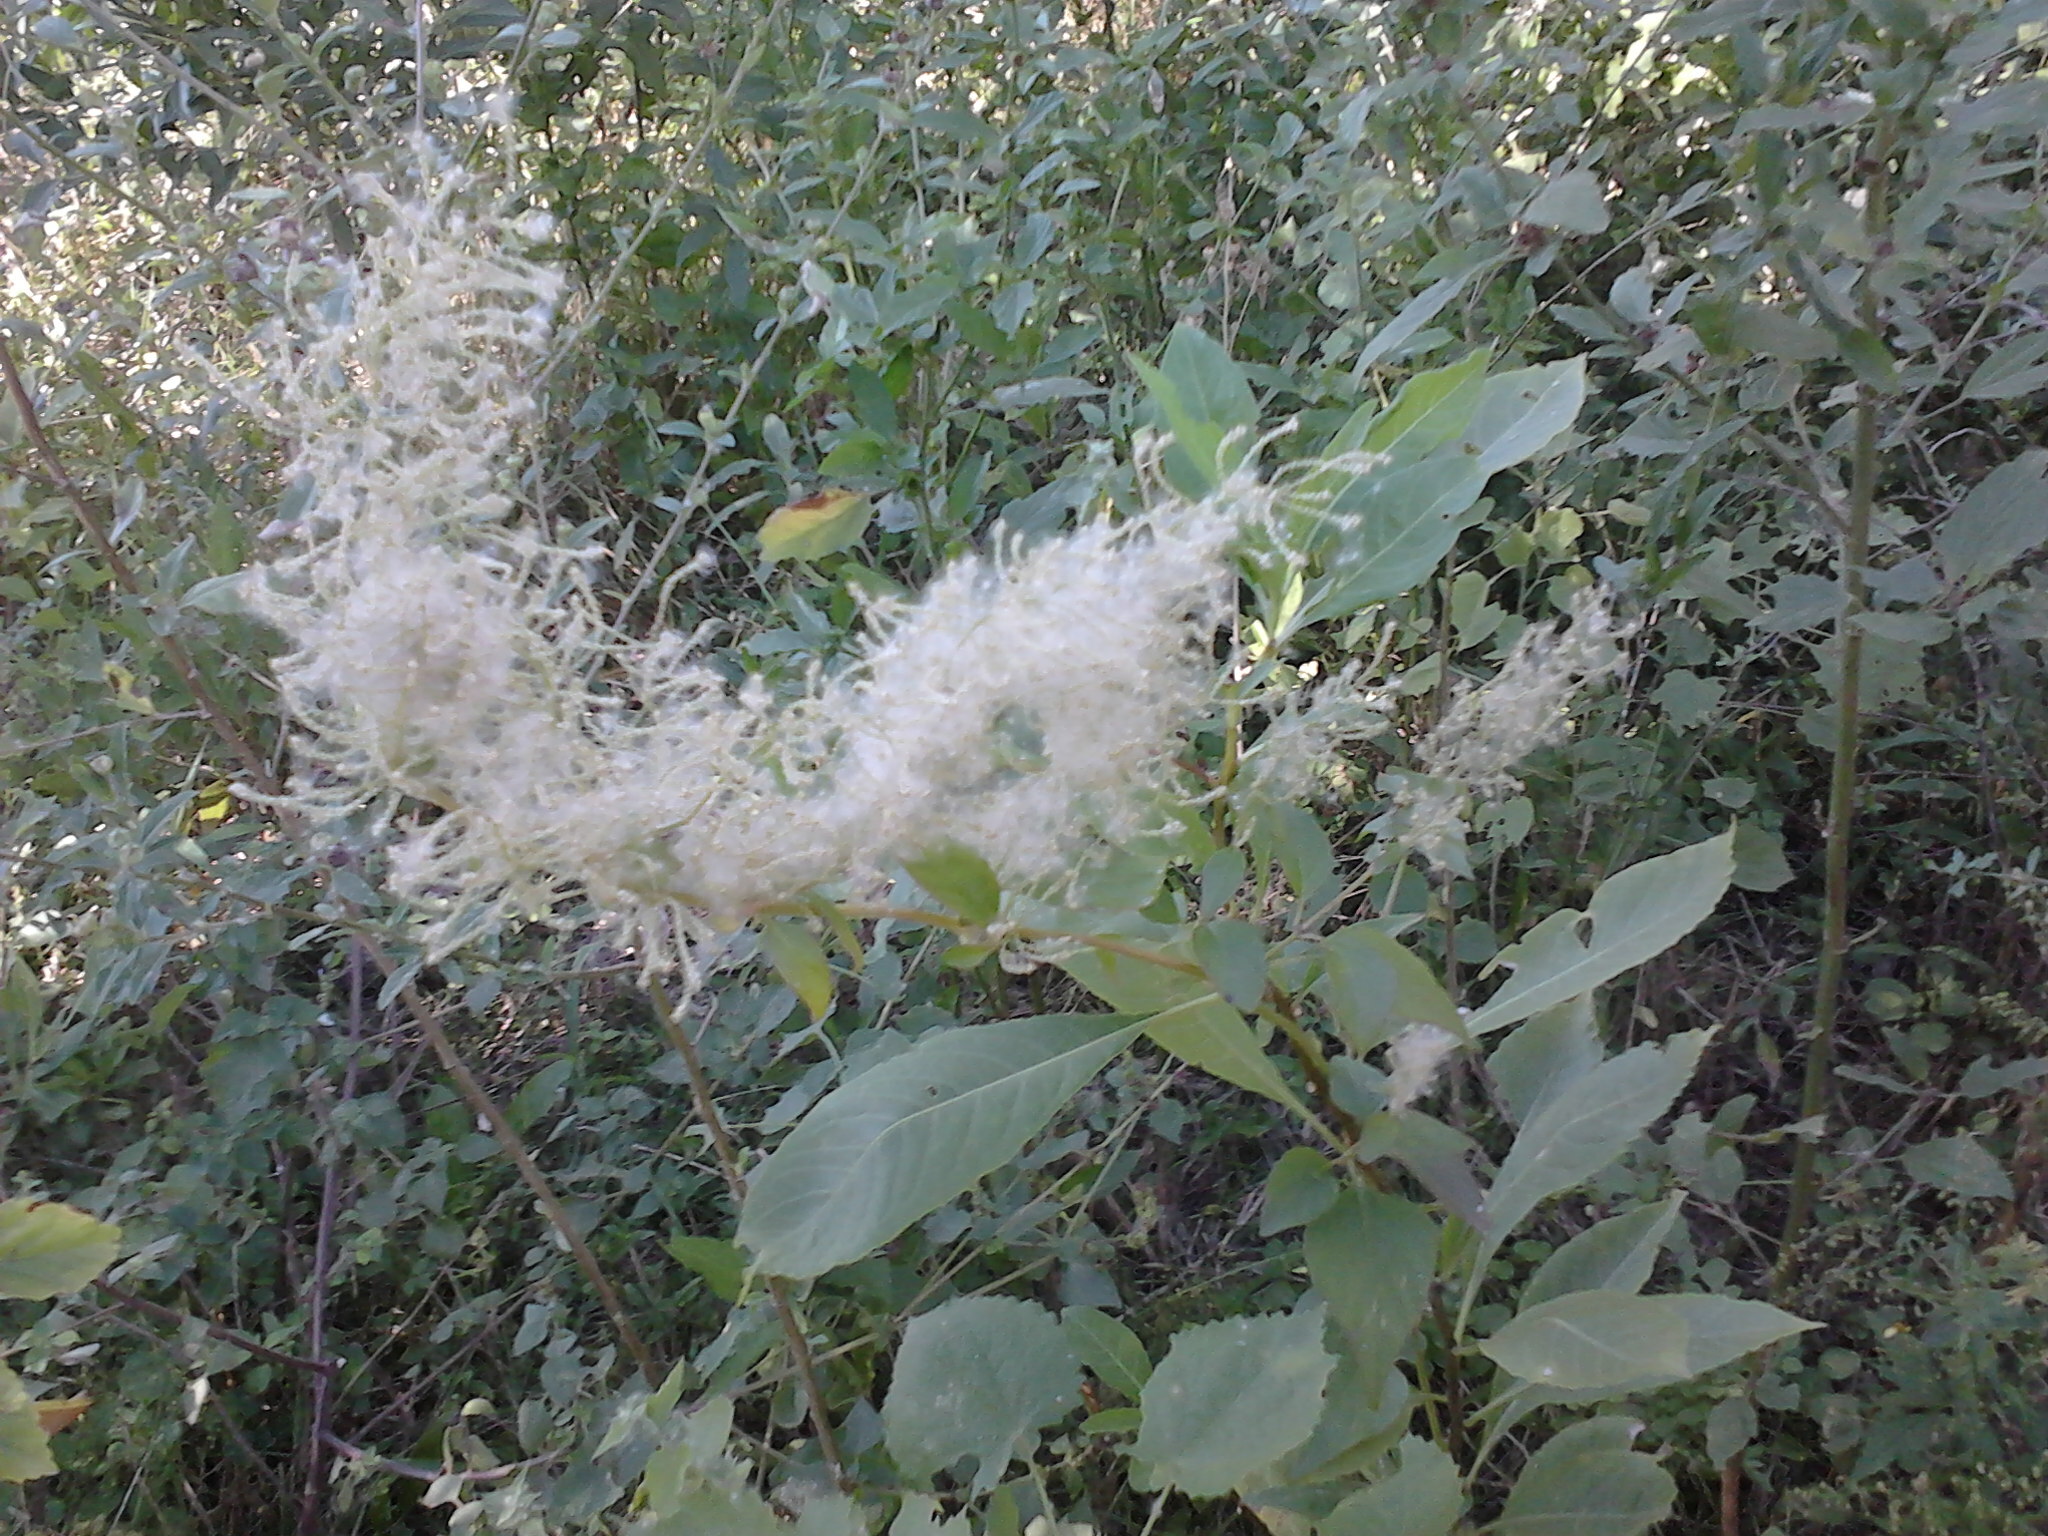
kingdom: Plantae
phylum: Tracheophyta
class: Magnoliopsida
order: Caryophyllales
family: Amaranthaceae
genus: Iresine
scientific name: Iresine diffusa
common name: Juba's-bush
